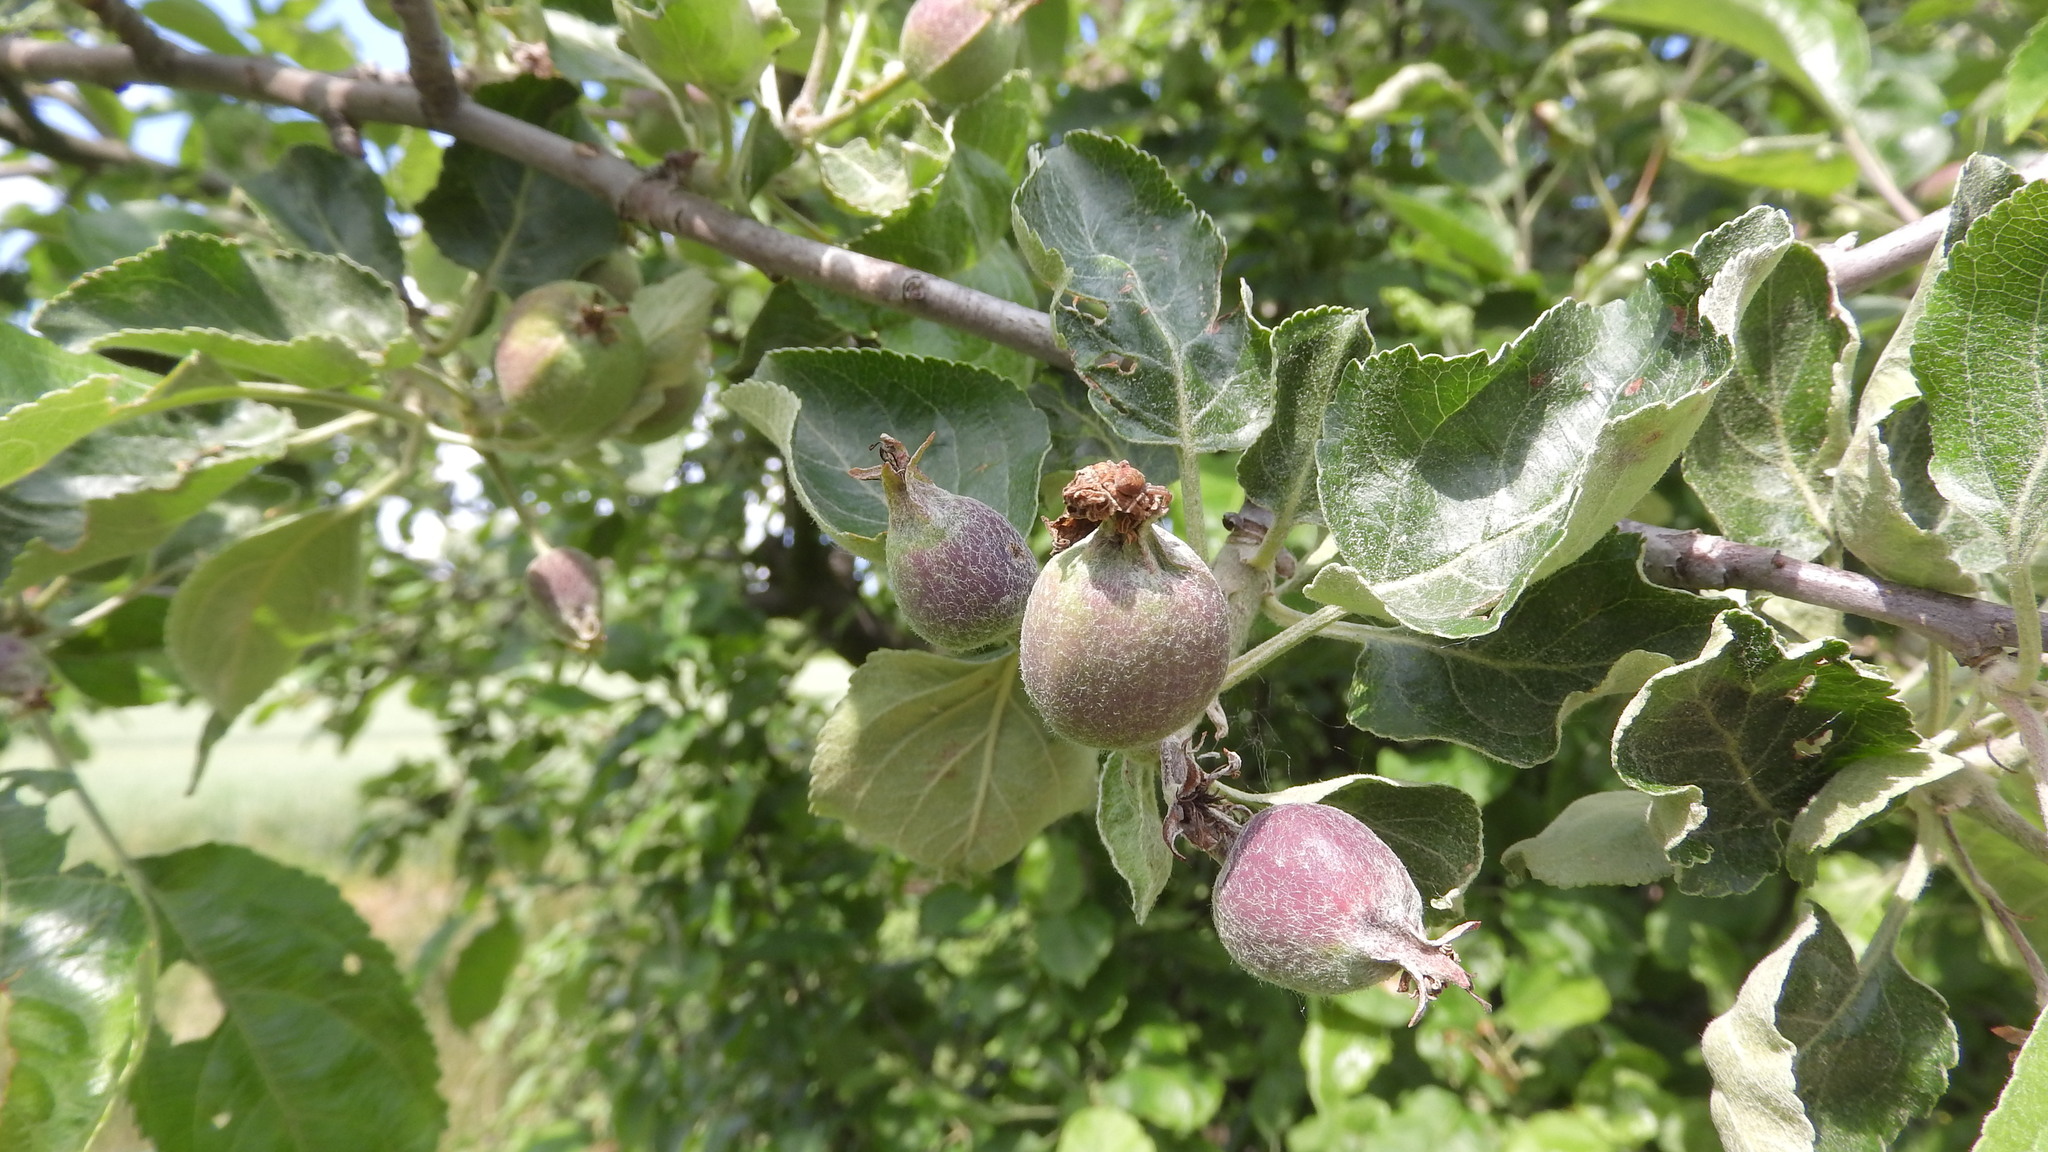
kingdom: Plantae
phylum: Tracheophyta
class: Magnoliopsida
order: Rosales
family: Rosaceae
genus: Malus
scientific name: Malus domestica
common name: Apple
